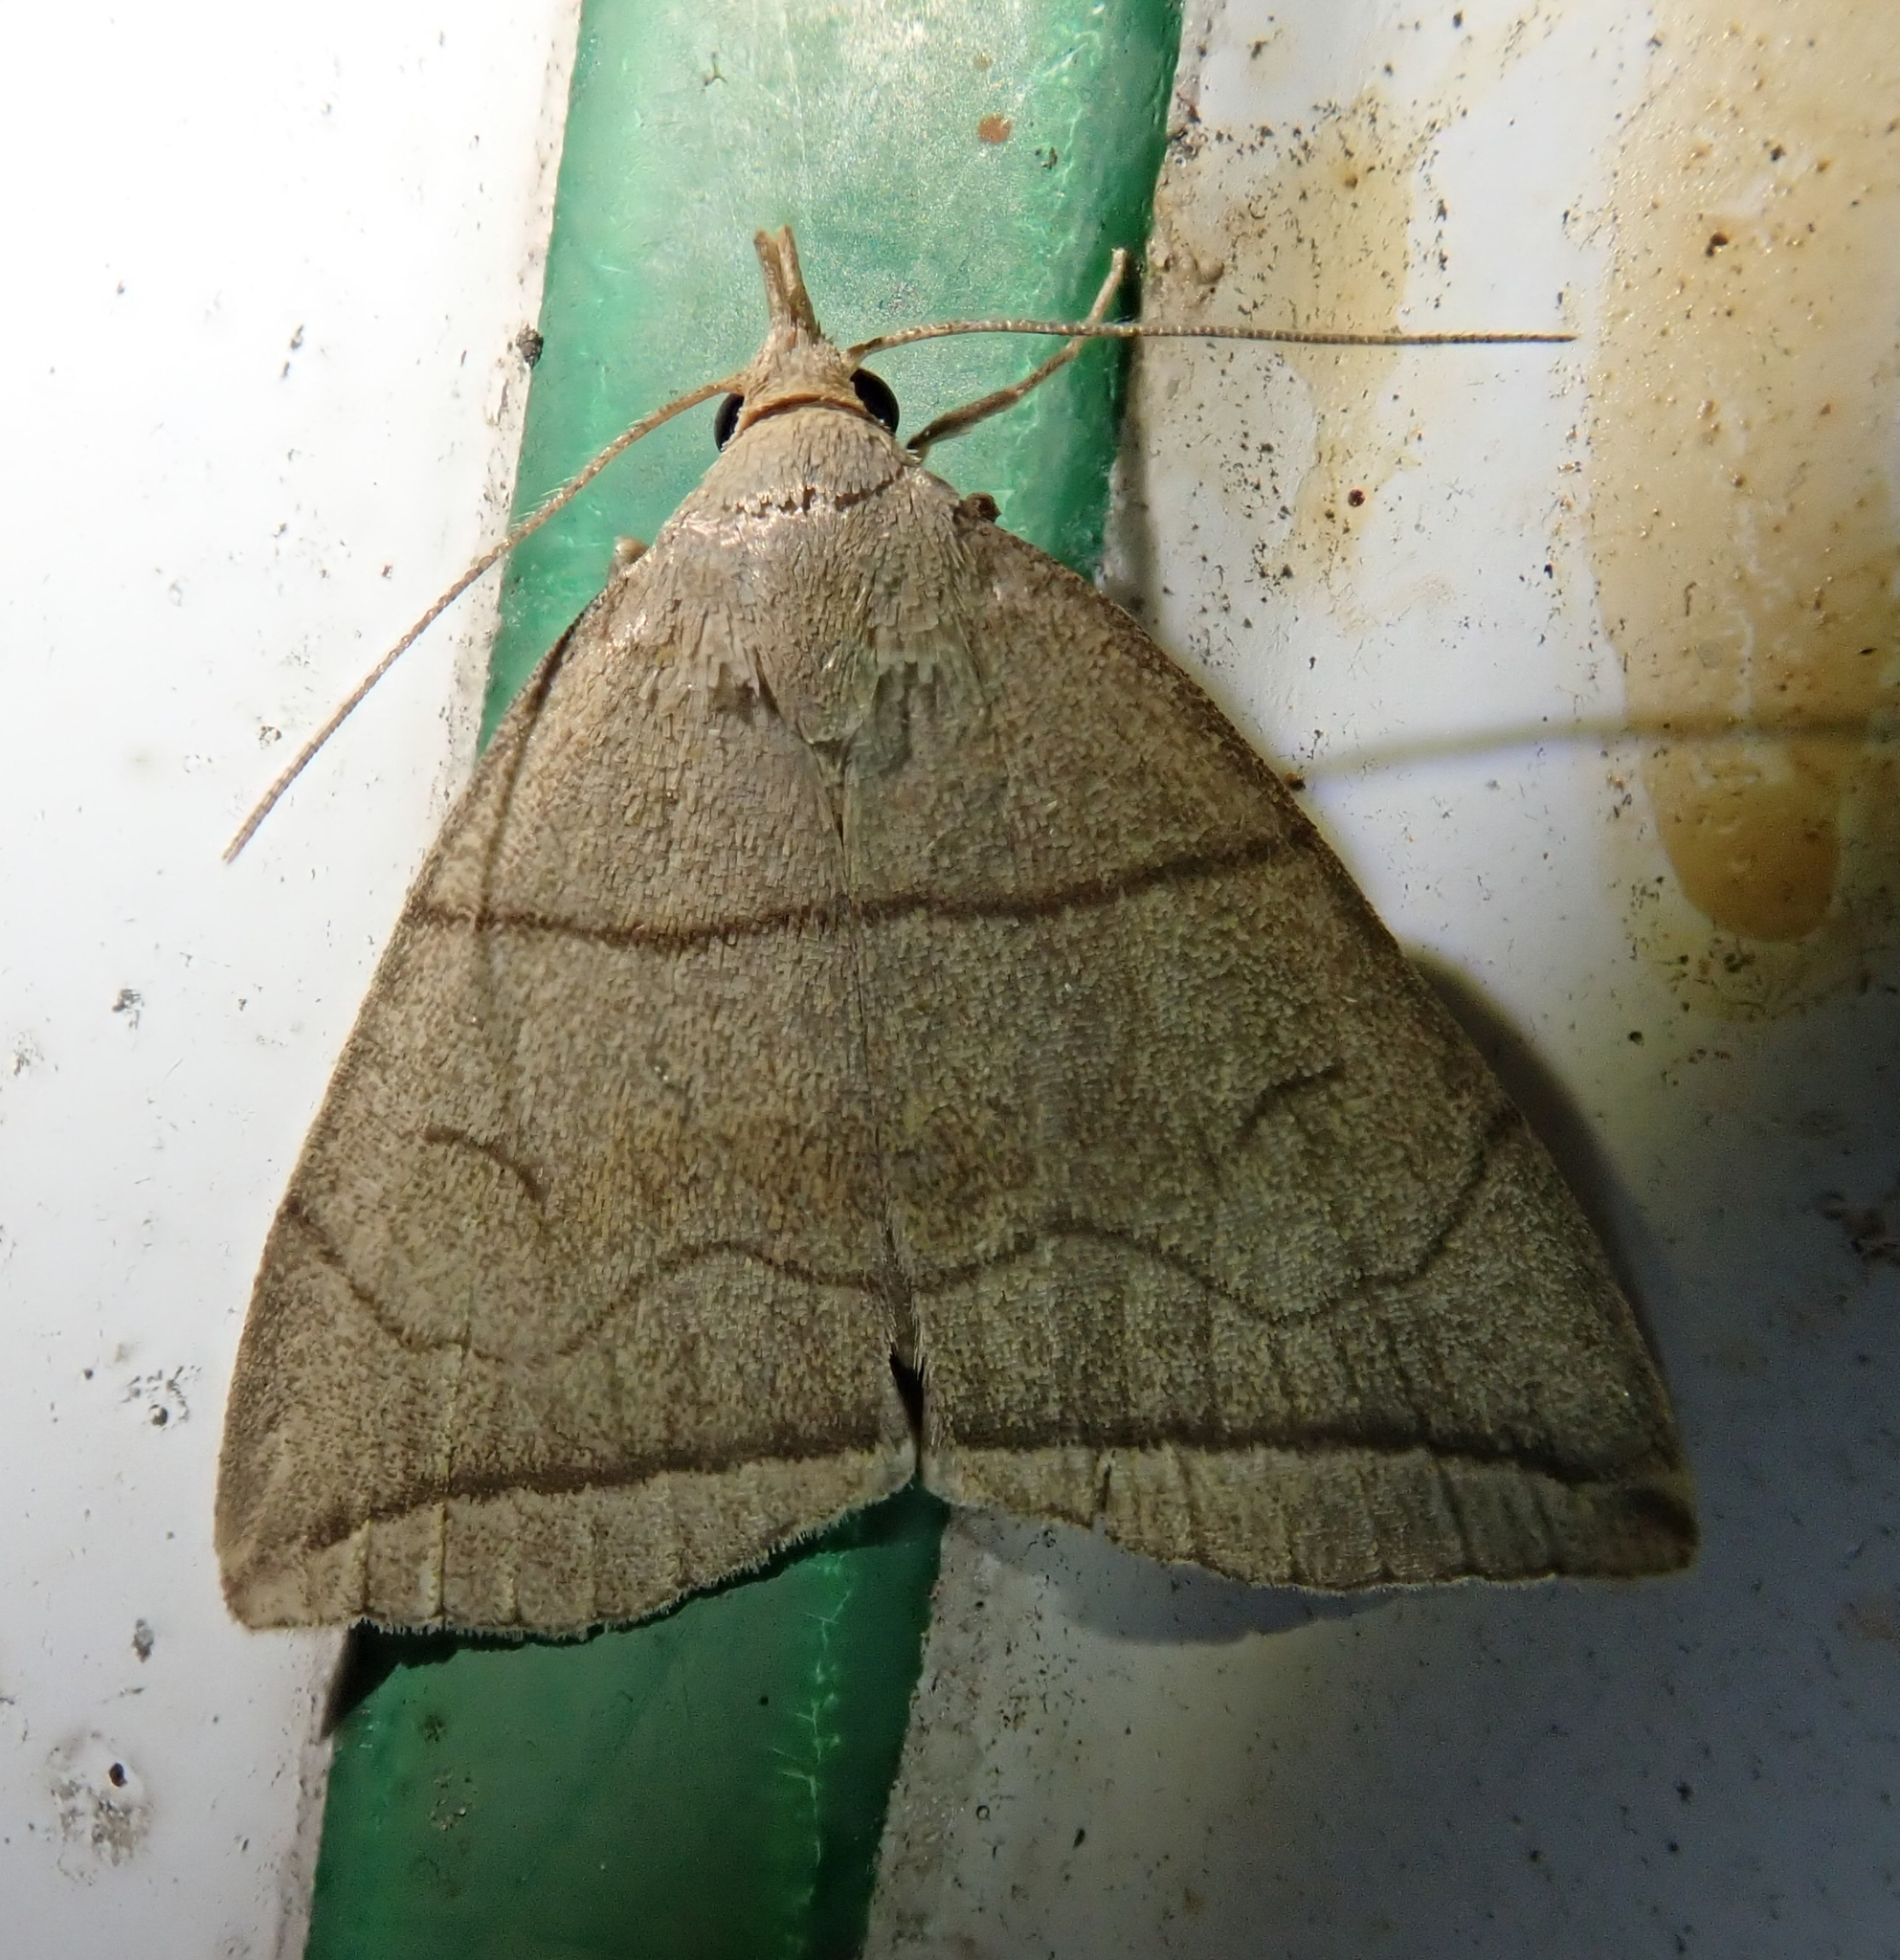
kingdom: Animalia
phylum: Arthropoda
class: Insecta
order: Lepidoptera
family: Erebidae
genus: Herminia
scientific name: Herminia grisealis
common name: Small fan-foot
